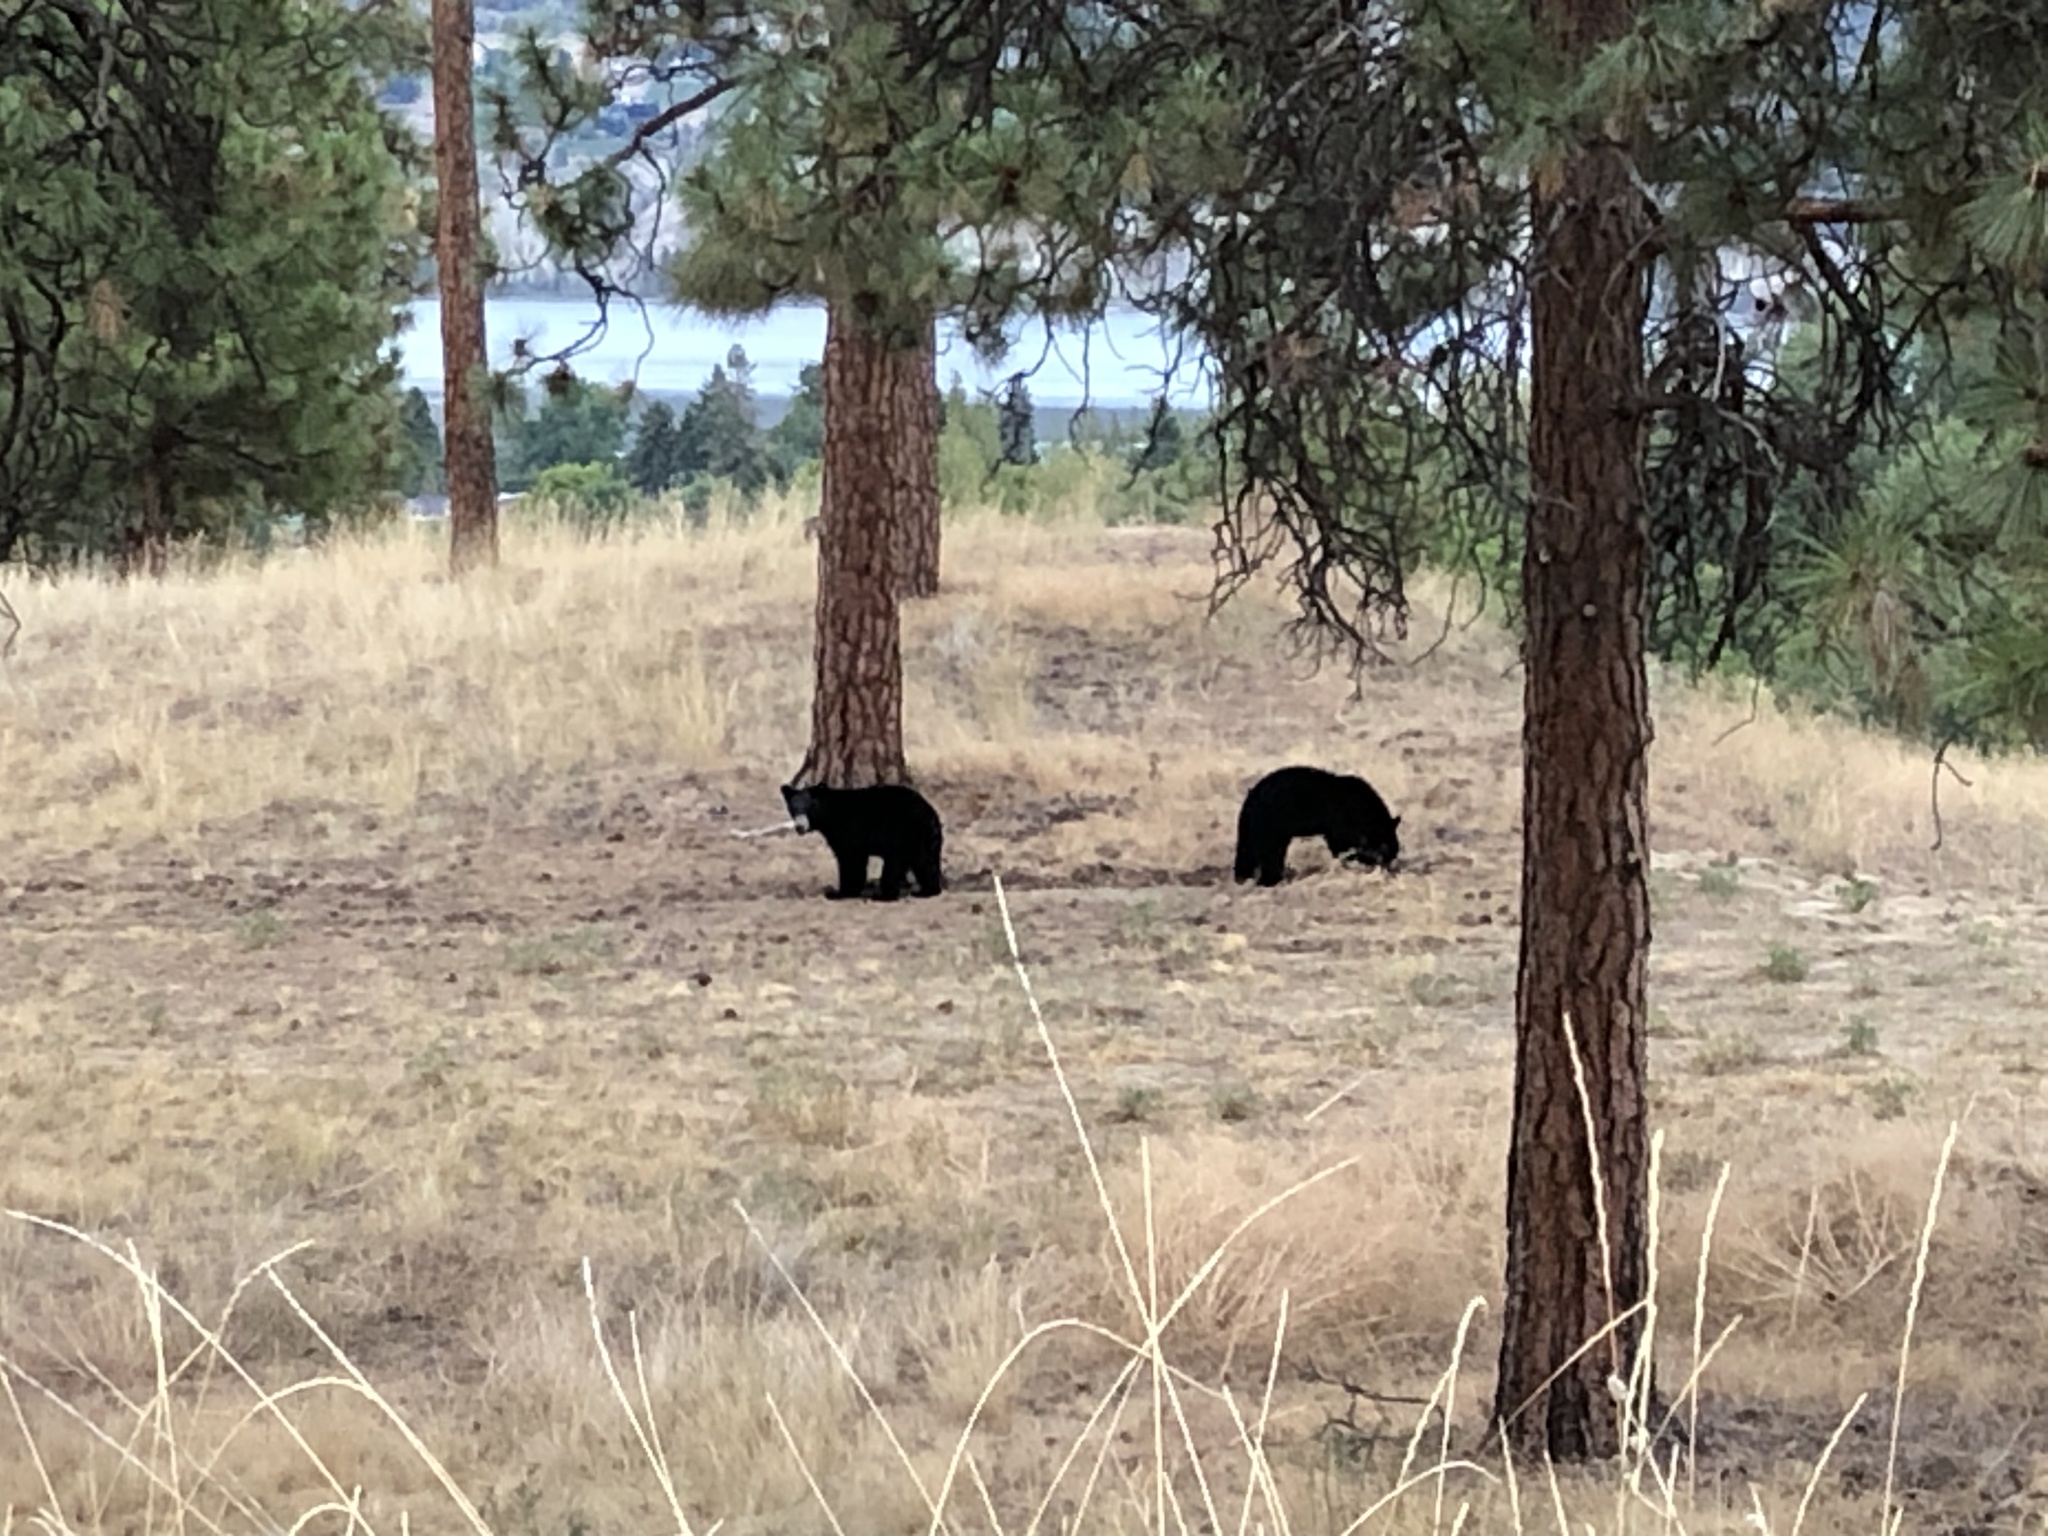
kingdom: Animalia
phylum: Chordata
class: Mammalia
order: Carnivora
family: Ursidae
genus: Ursus
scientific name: Ursus americanus
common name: American black bear
